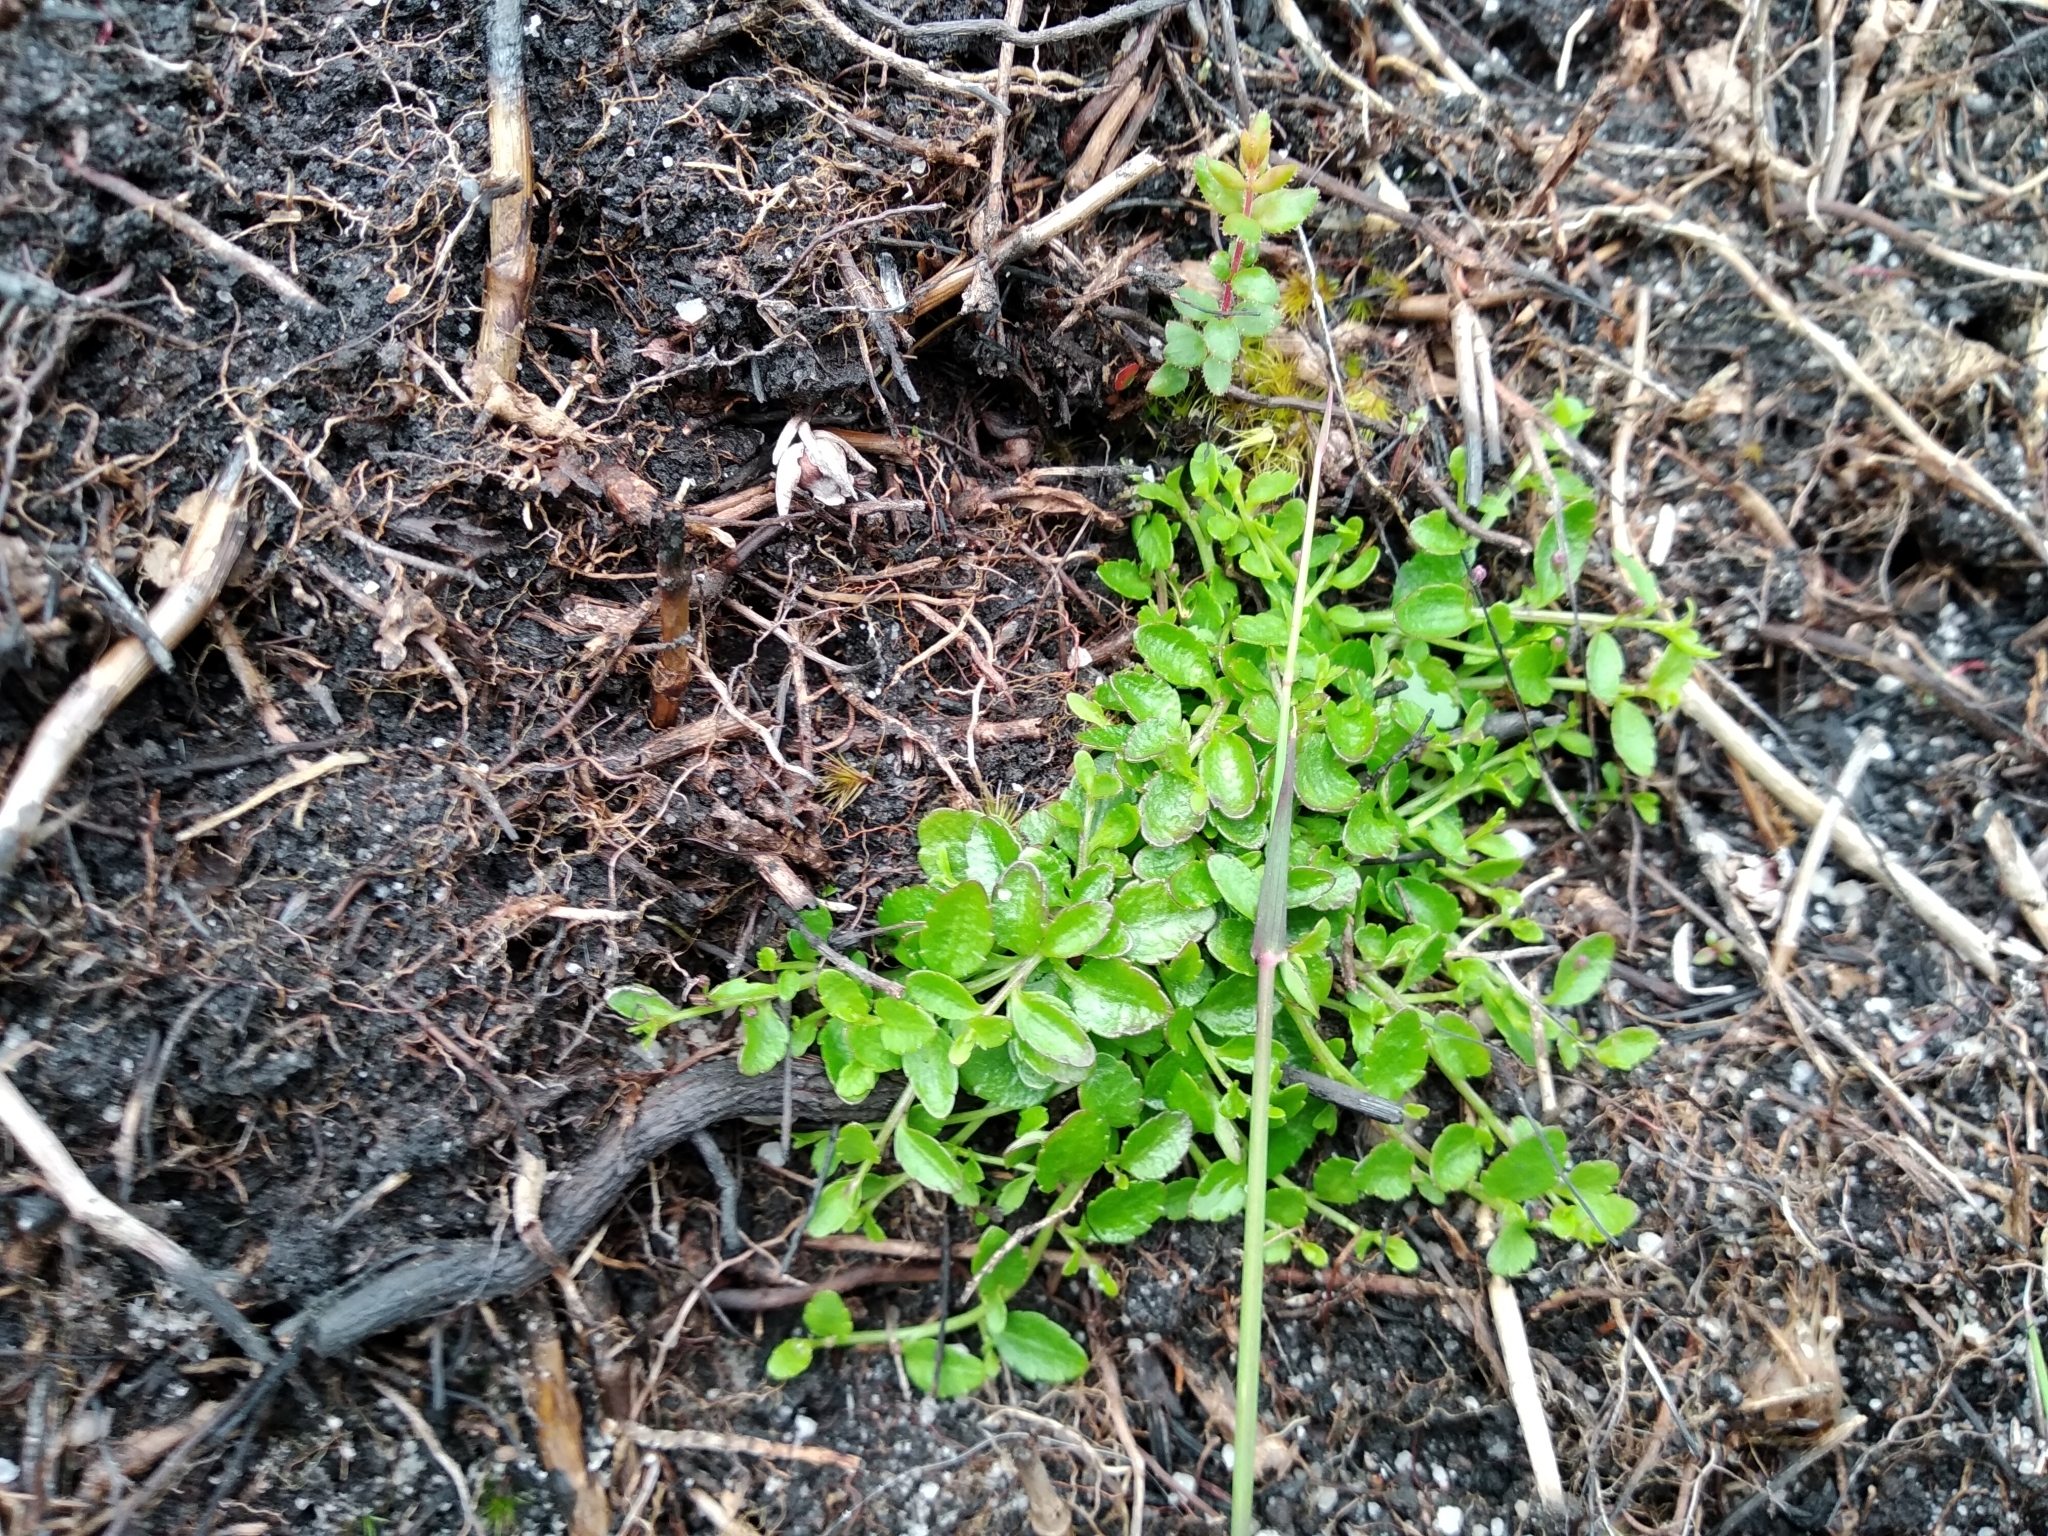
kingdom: Plantae
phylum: Tracheophyta
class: Magnoliopsida
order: Asterales
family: Campanulaceae
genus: Unigenes
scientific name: Unigenes humifusa
